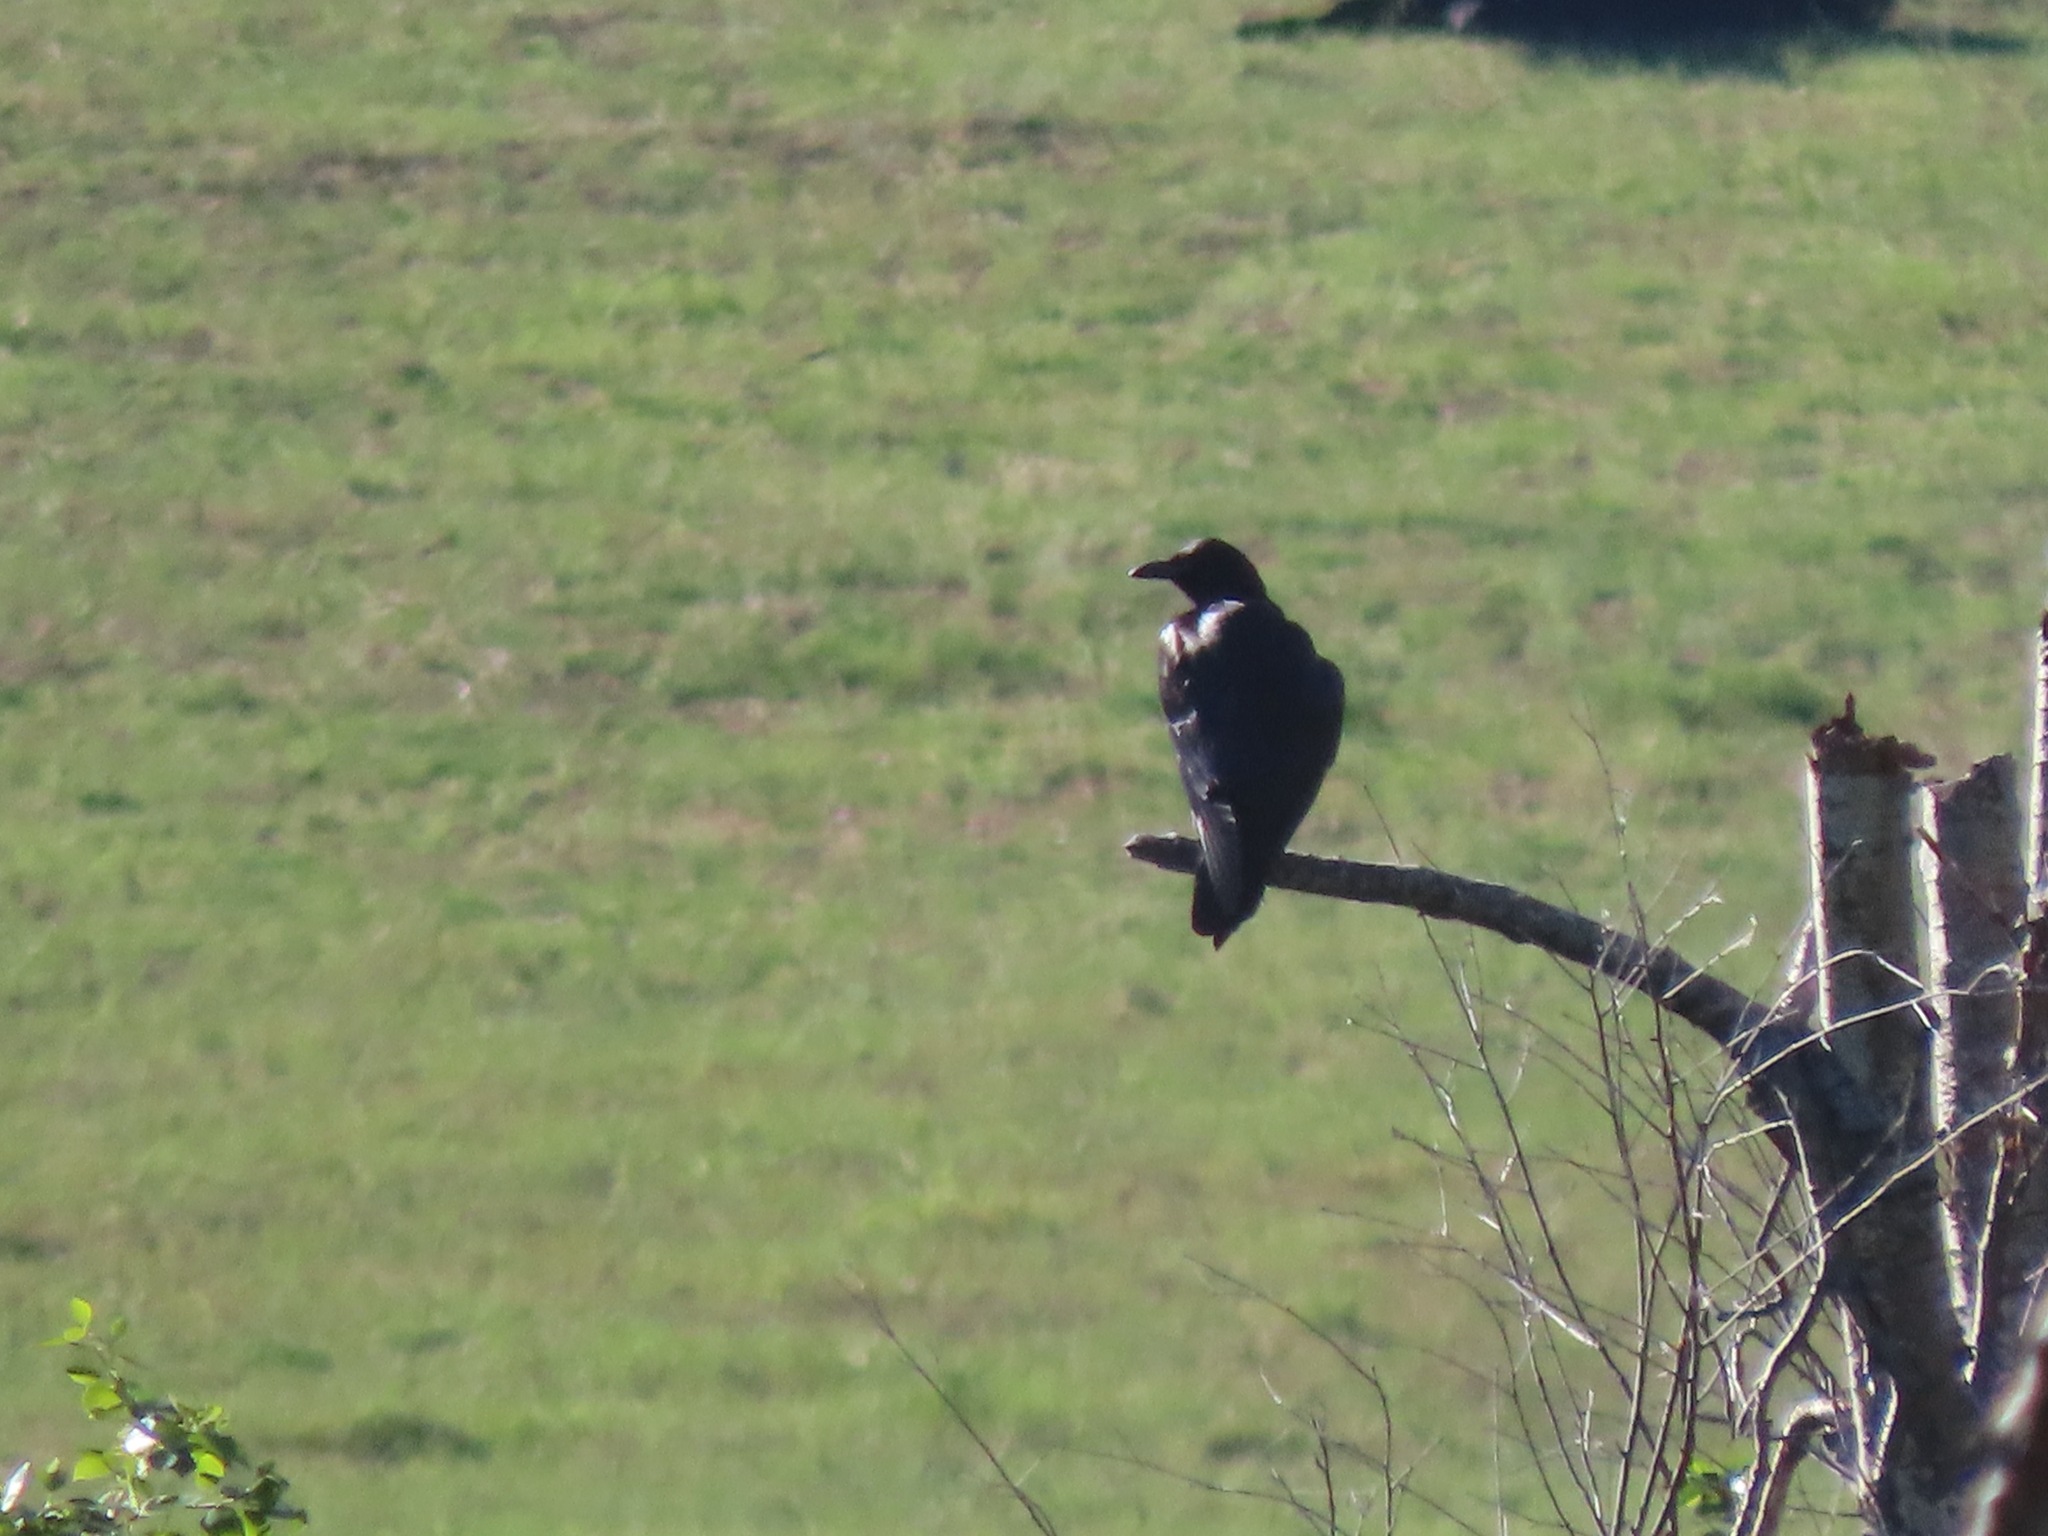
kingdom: Animalia
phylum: Chordata
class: Aves
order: Passeriformes
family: Corvidae
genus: Corvus
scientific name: Corvus corax
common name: Common raven
